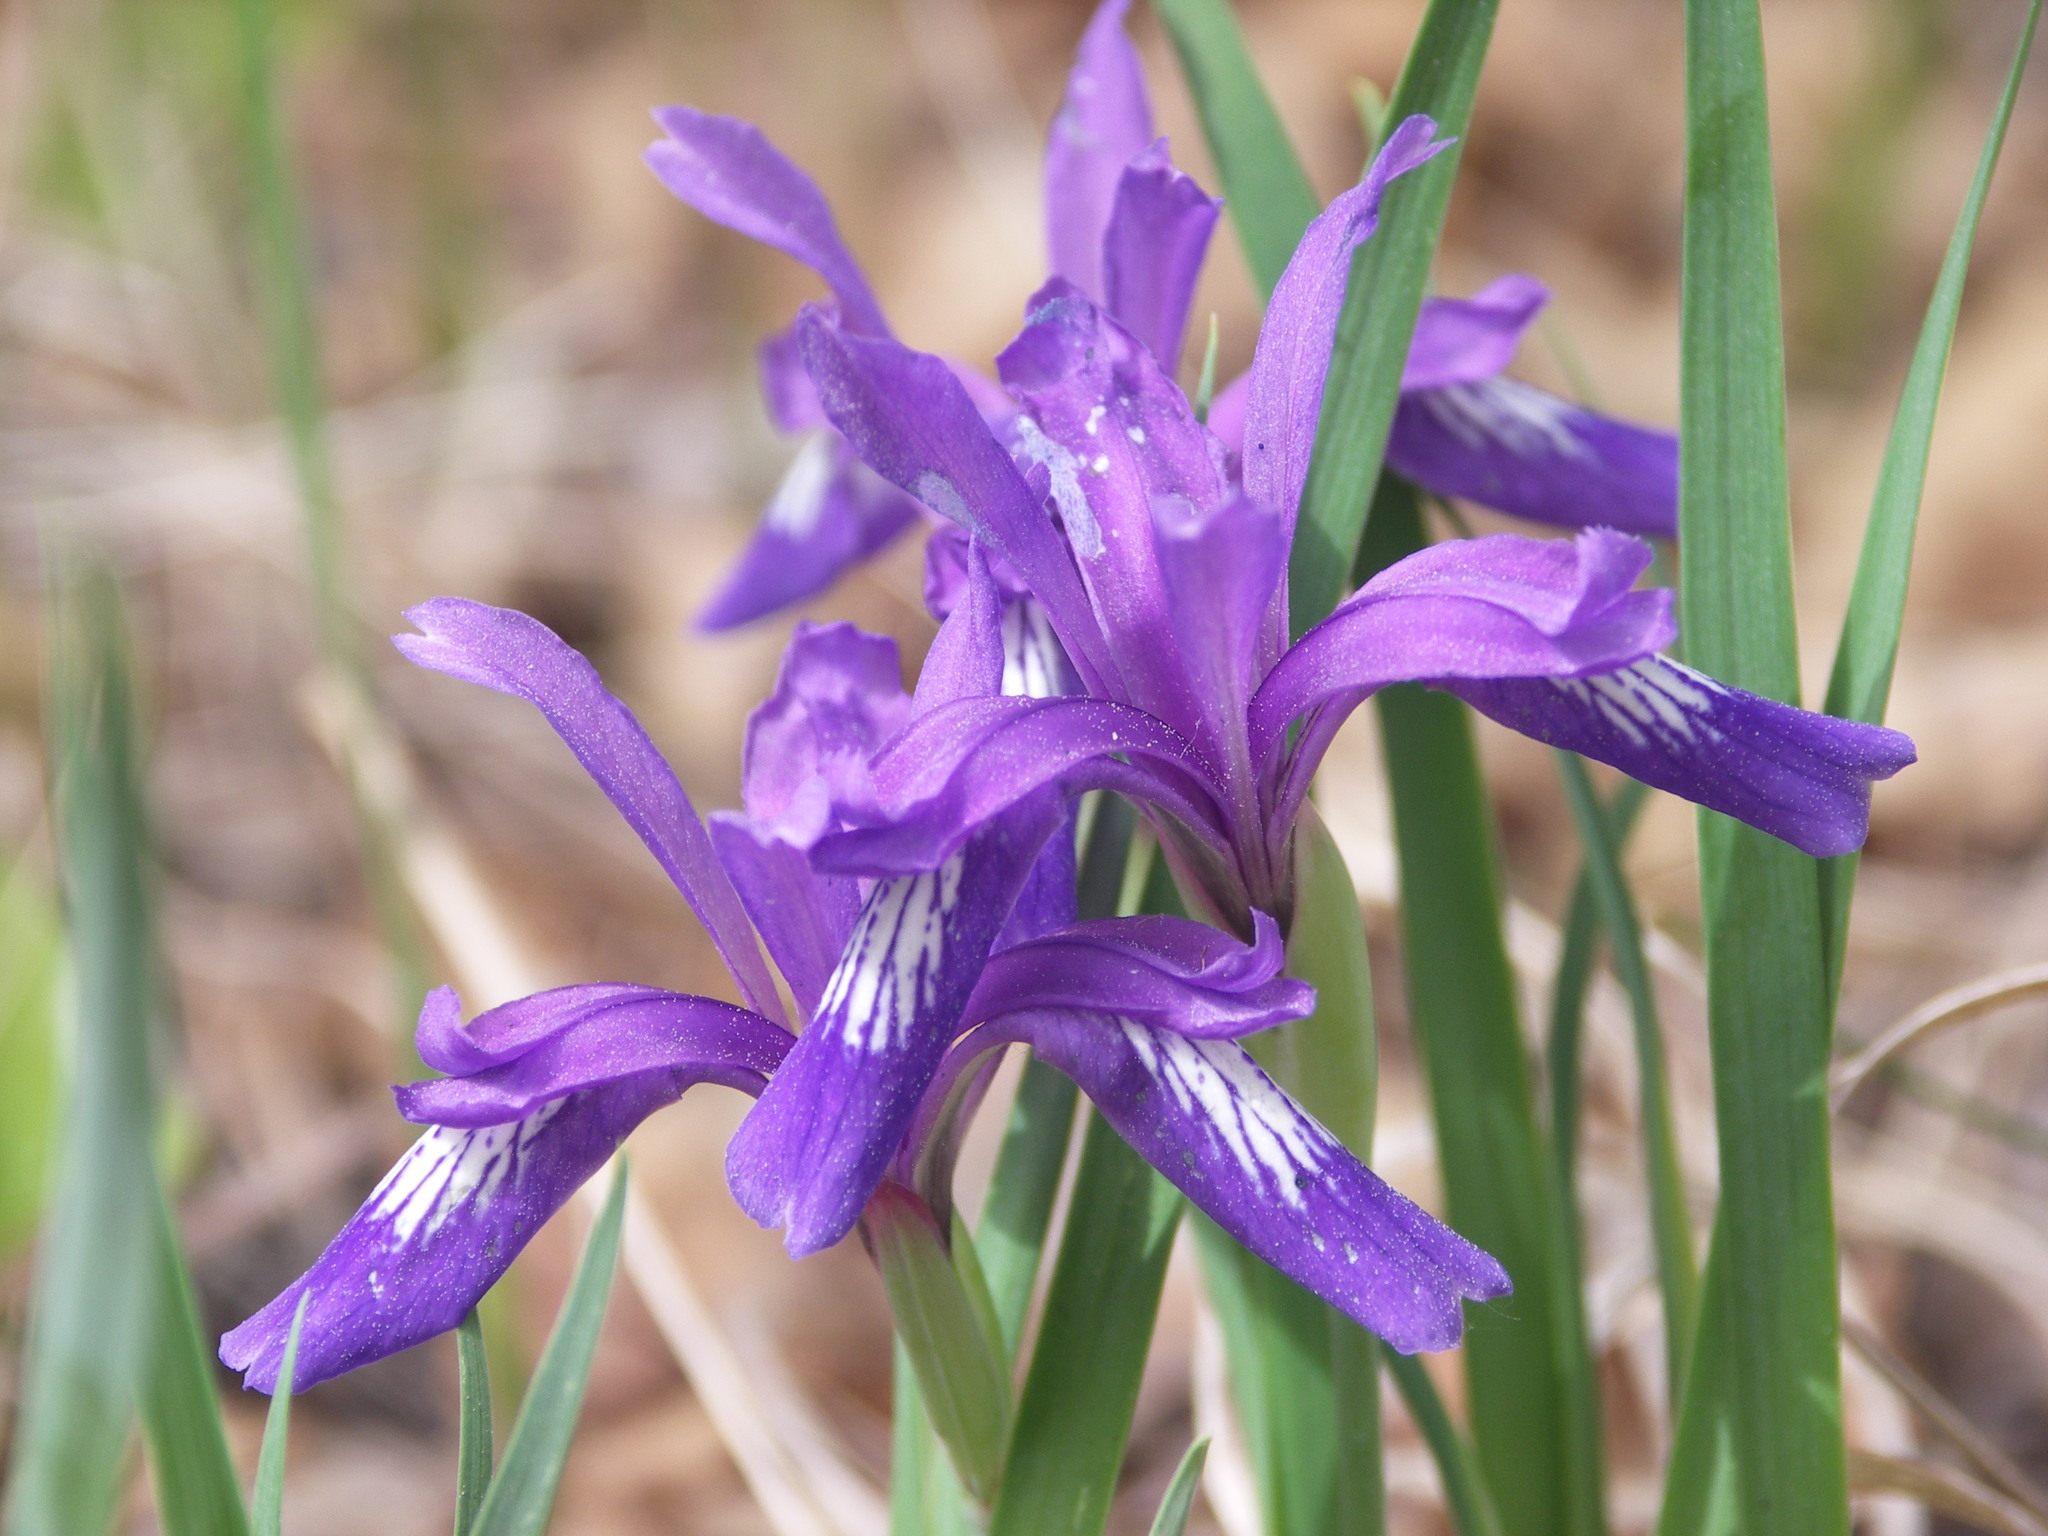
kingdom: Plantae
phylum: Tracheophyta
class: Liliopsida
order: Asparagales
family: Iridaceae
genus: Iris
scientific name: Iris uniflora
